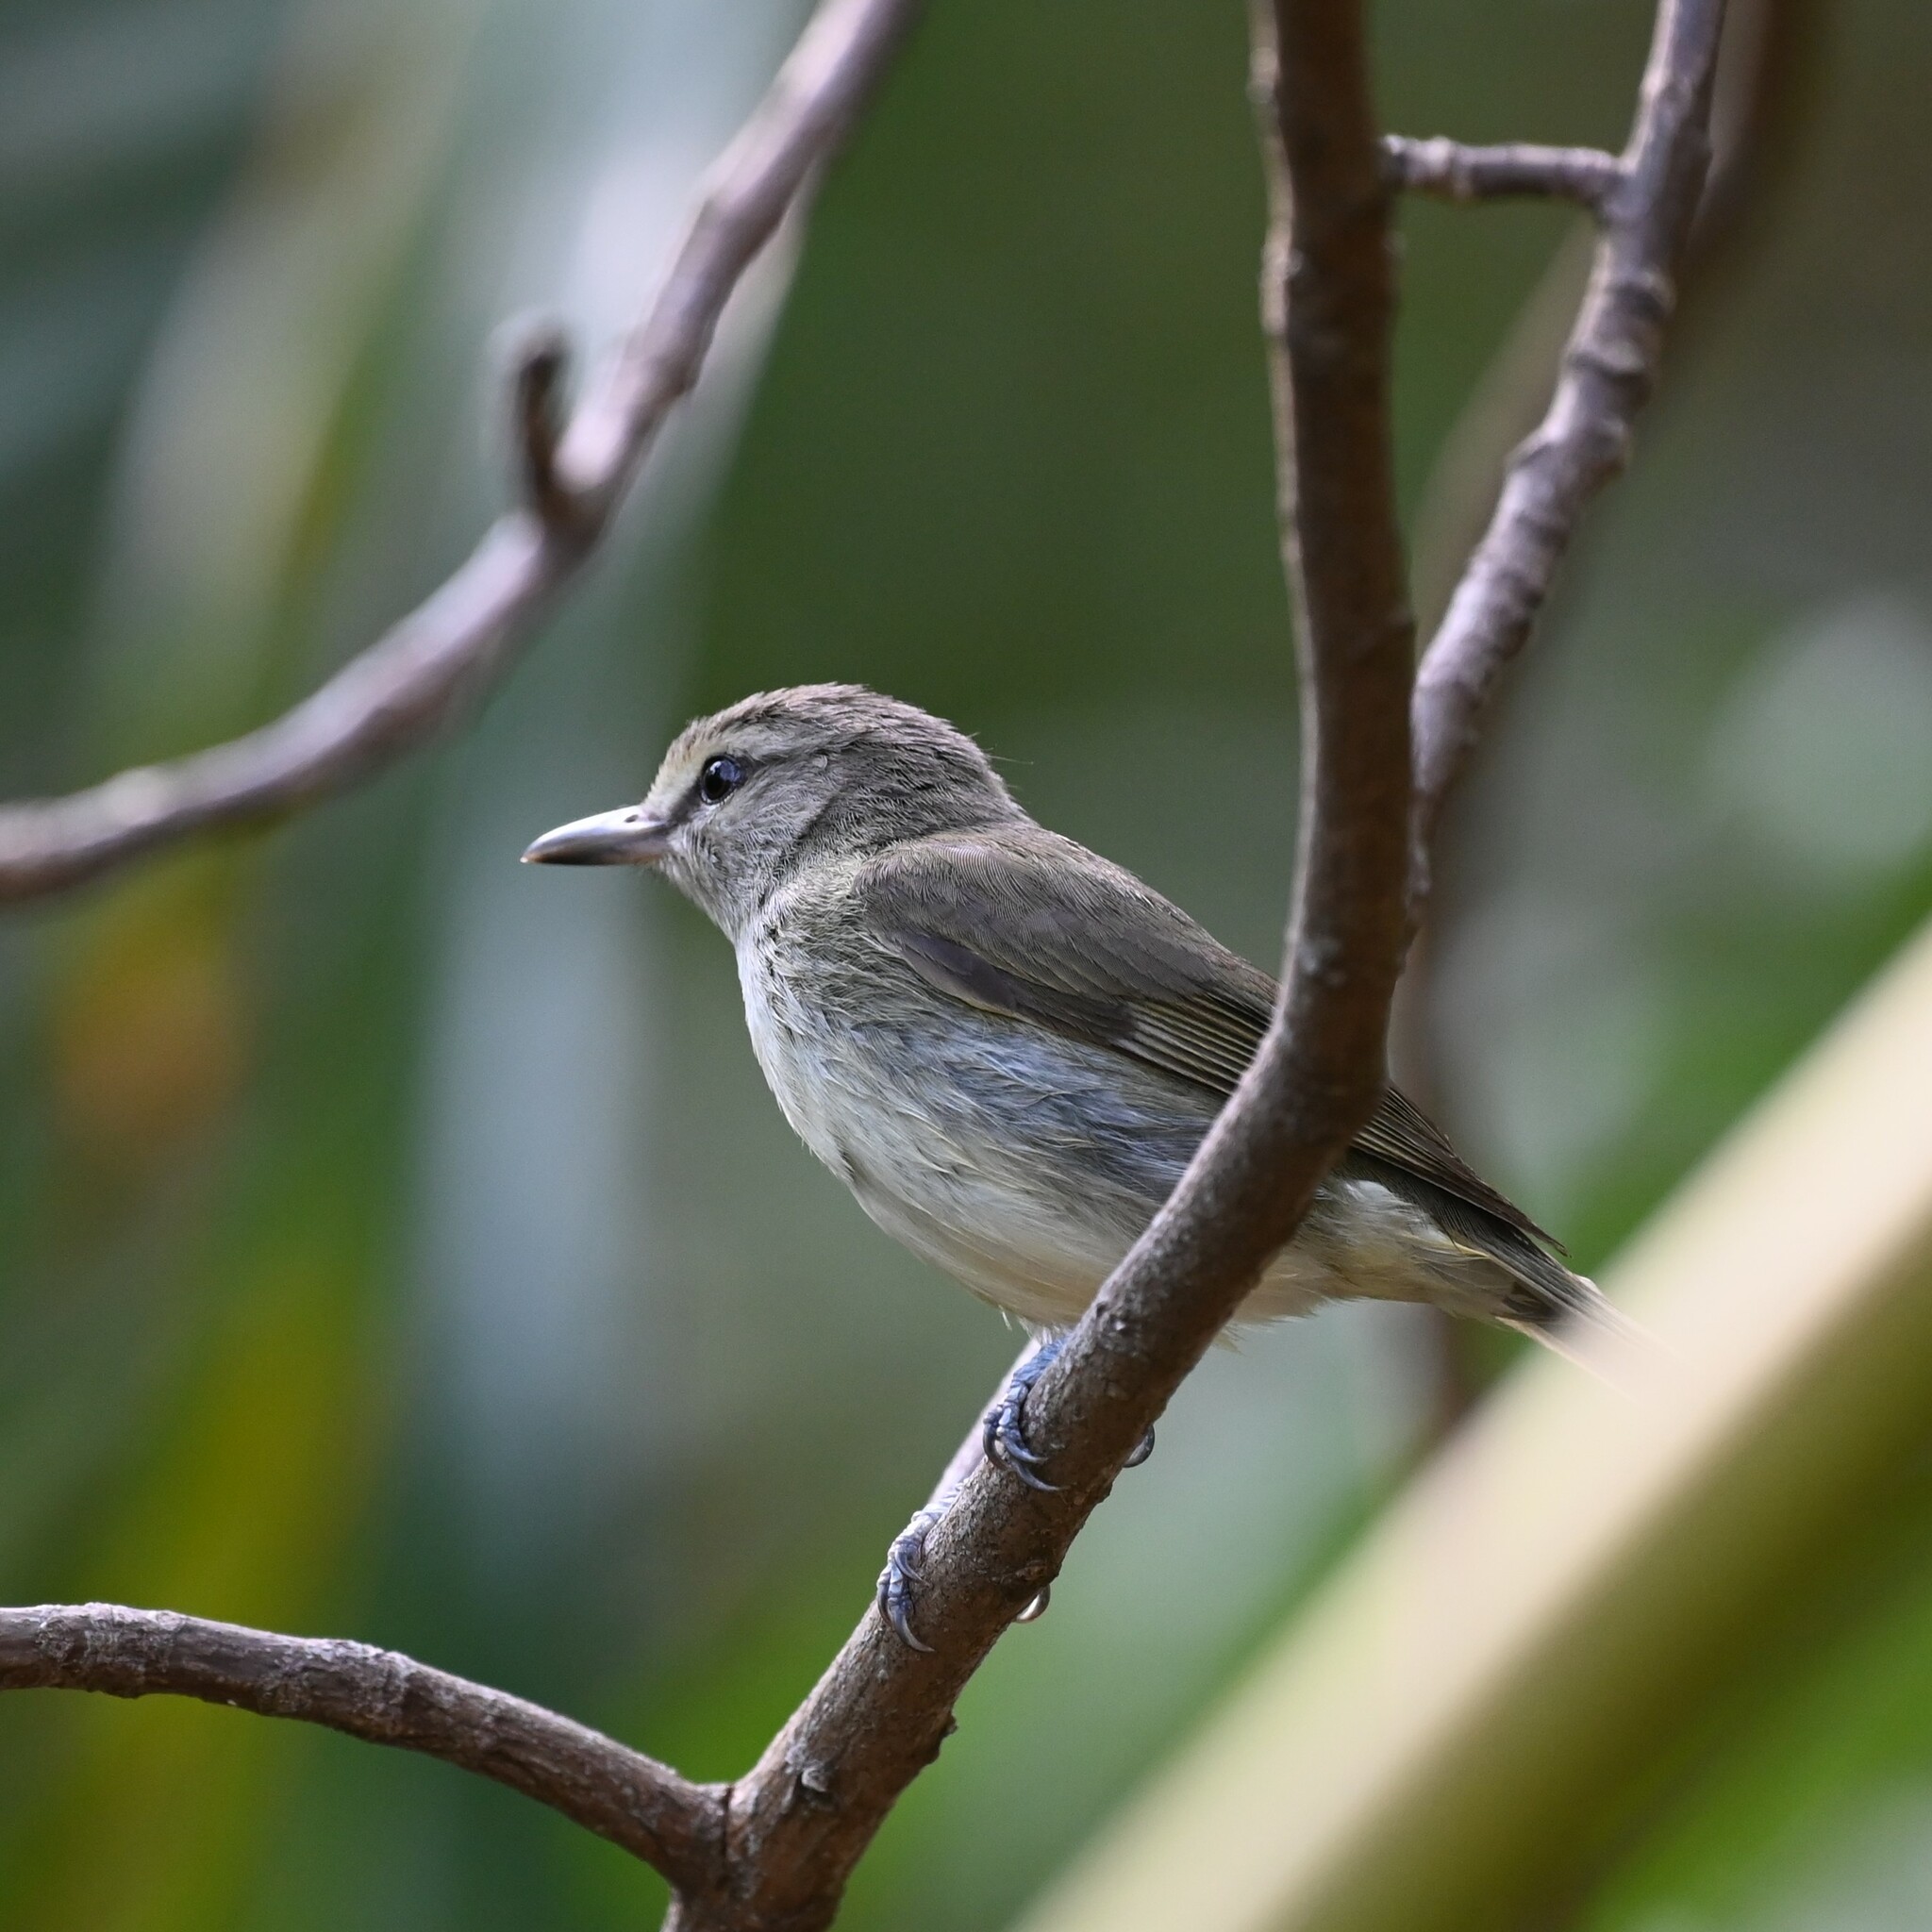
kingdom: Animalia
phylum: Chordata
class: Aves
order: Passeriformes
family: Vireonidae
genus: Vireo
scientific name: Vireo magister
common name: Yucatan vireo
